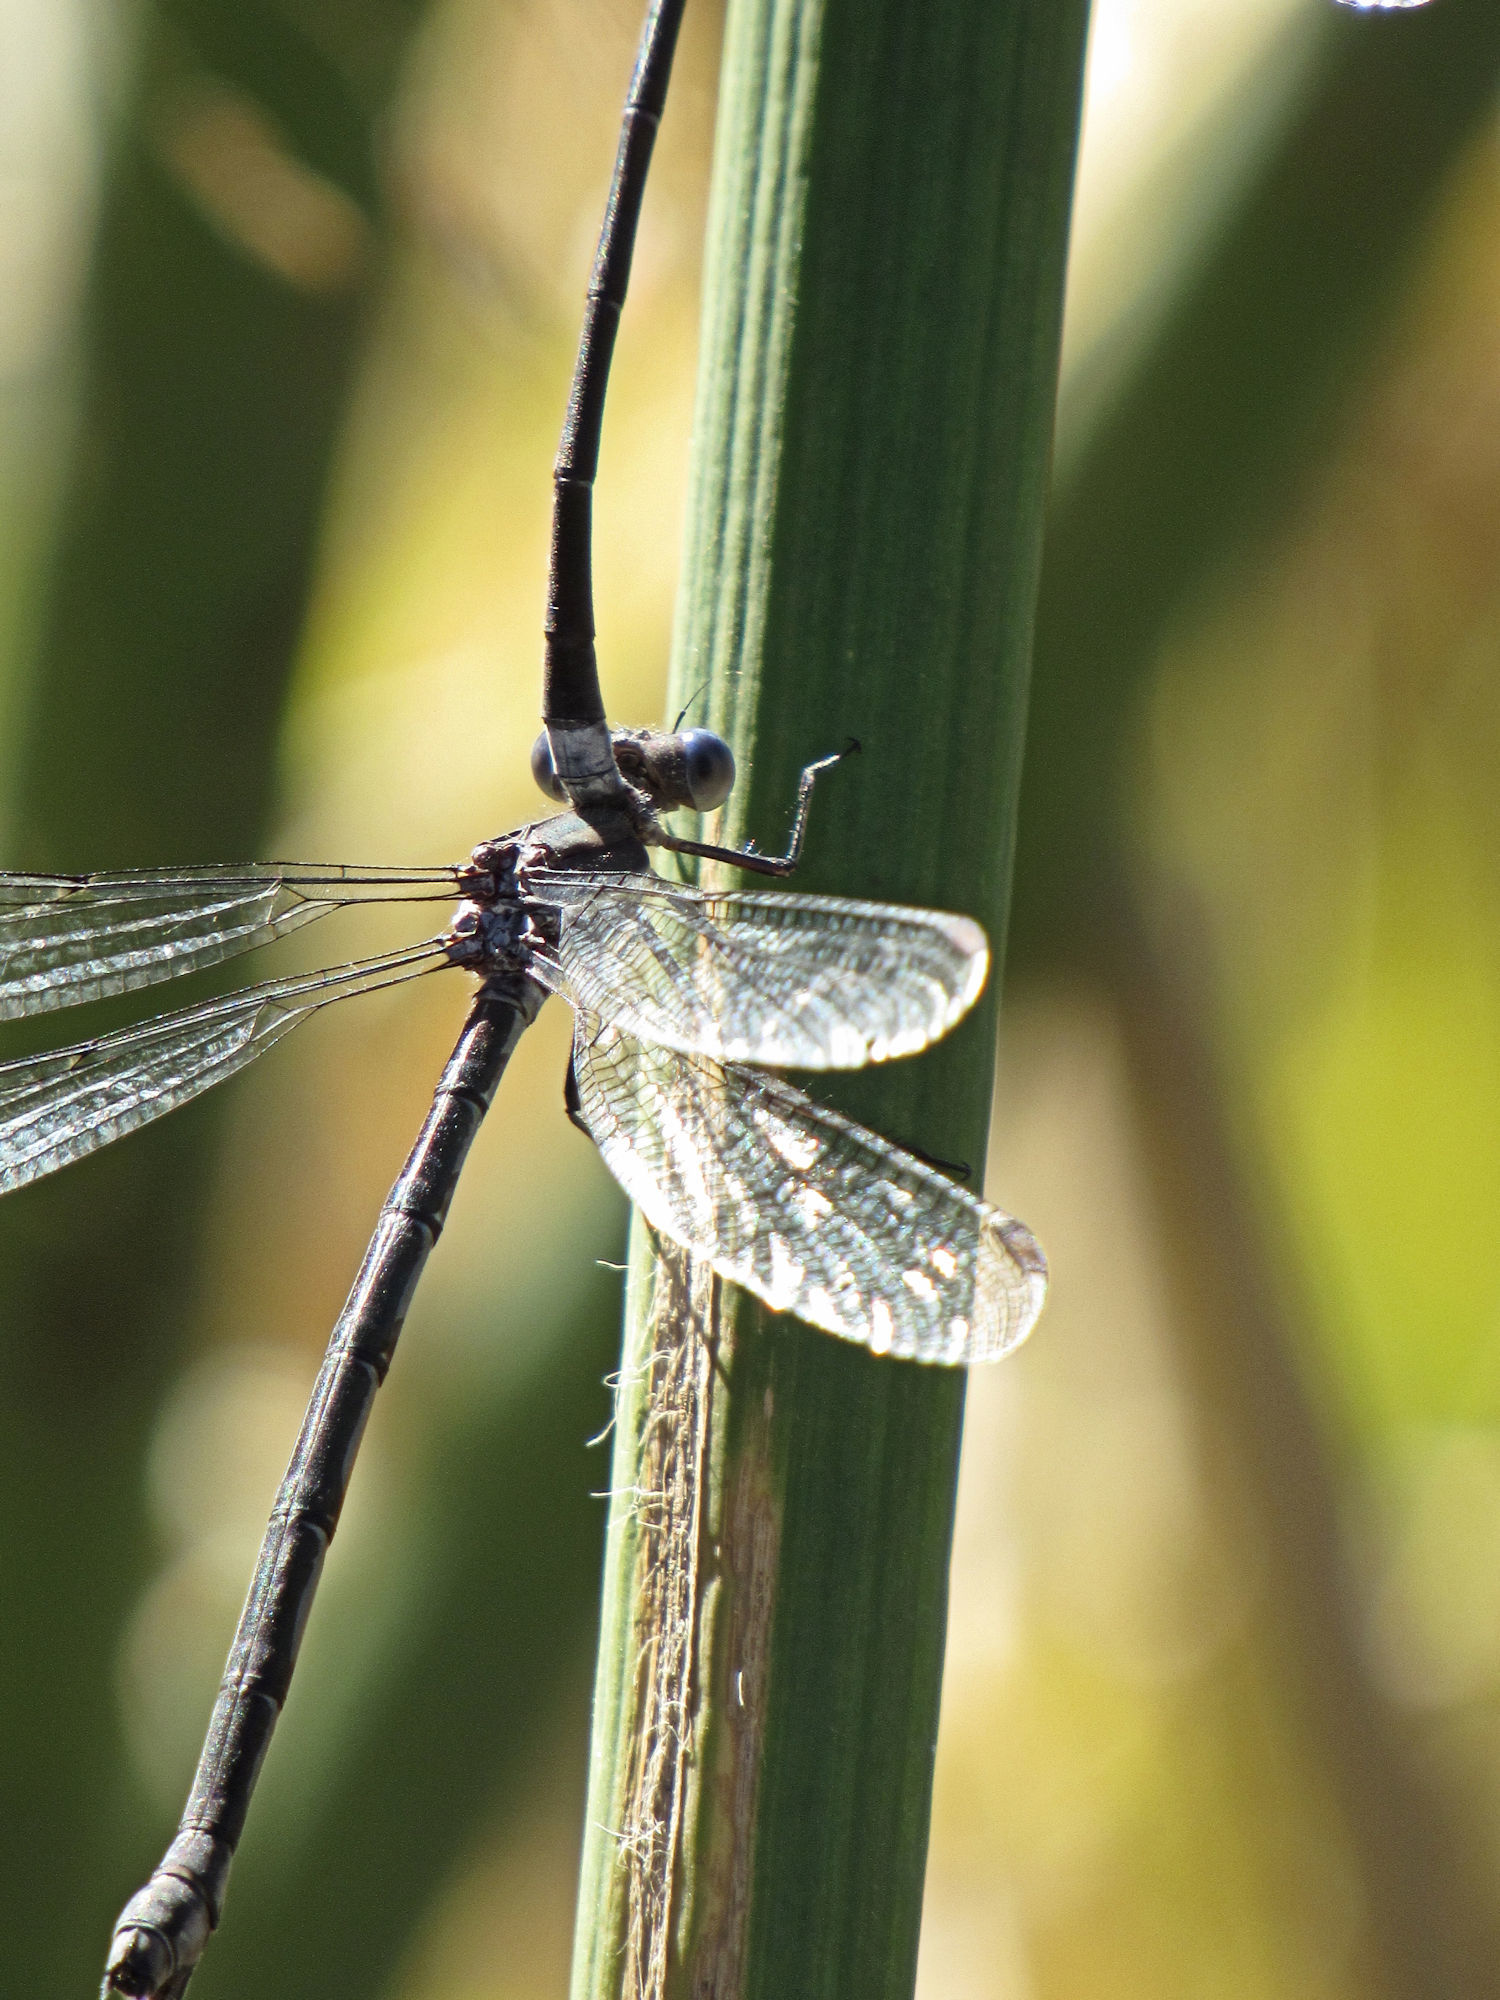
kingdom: Animalia
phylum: Arthropoda
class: Insecta
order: Odonata
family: Lestidae
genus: Archilestes
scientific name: Archilestes grandis
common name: Great spreadwing
